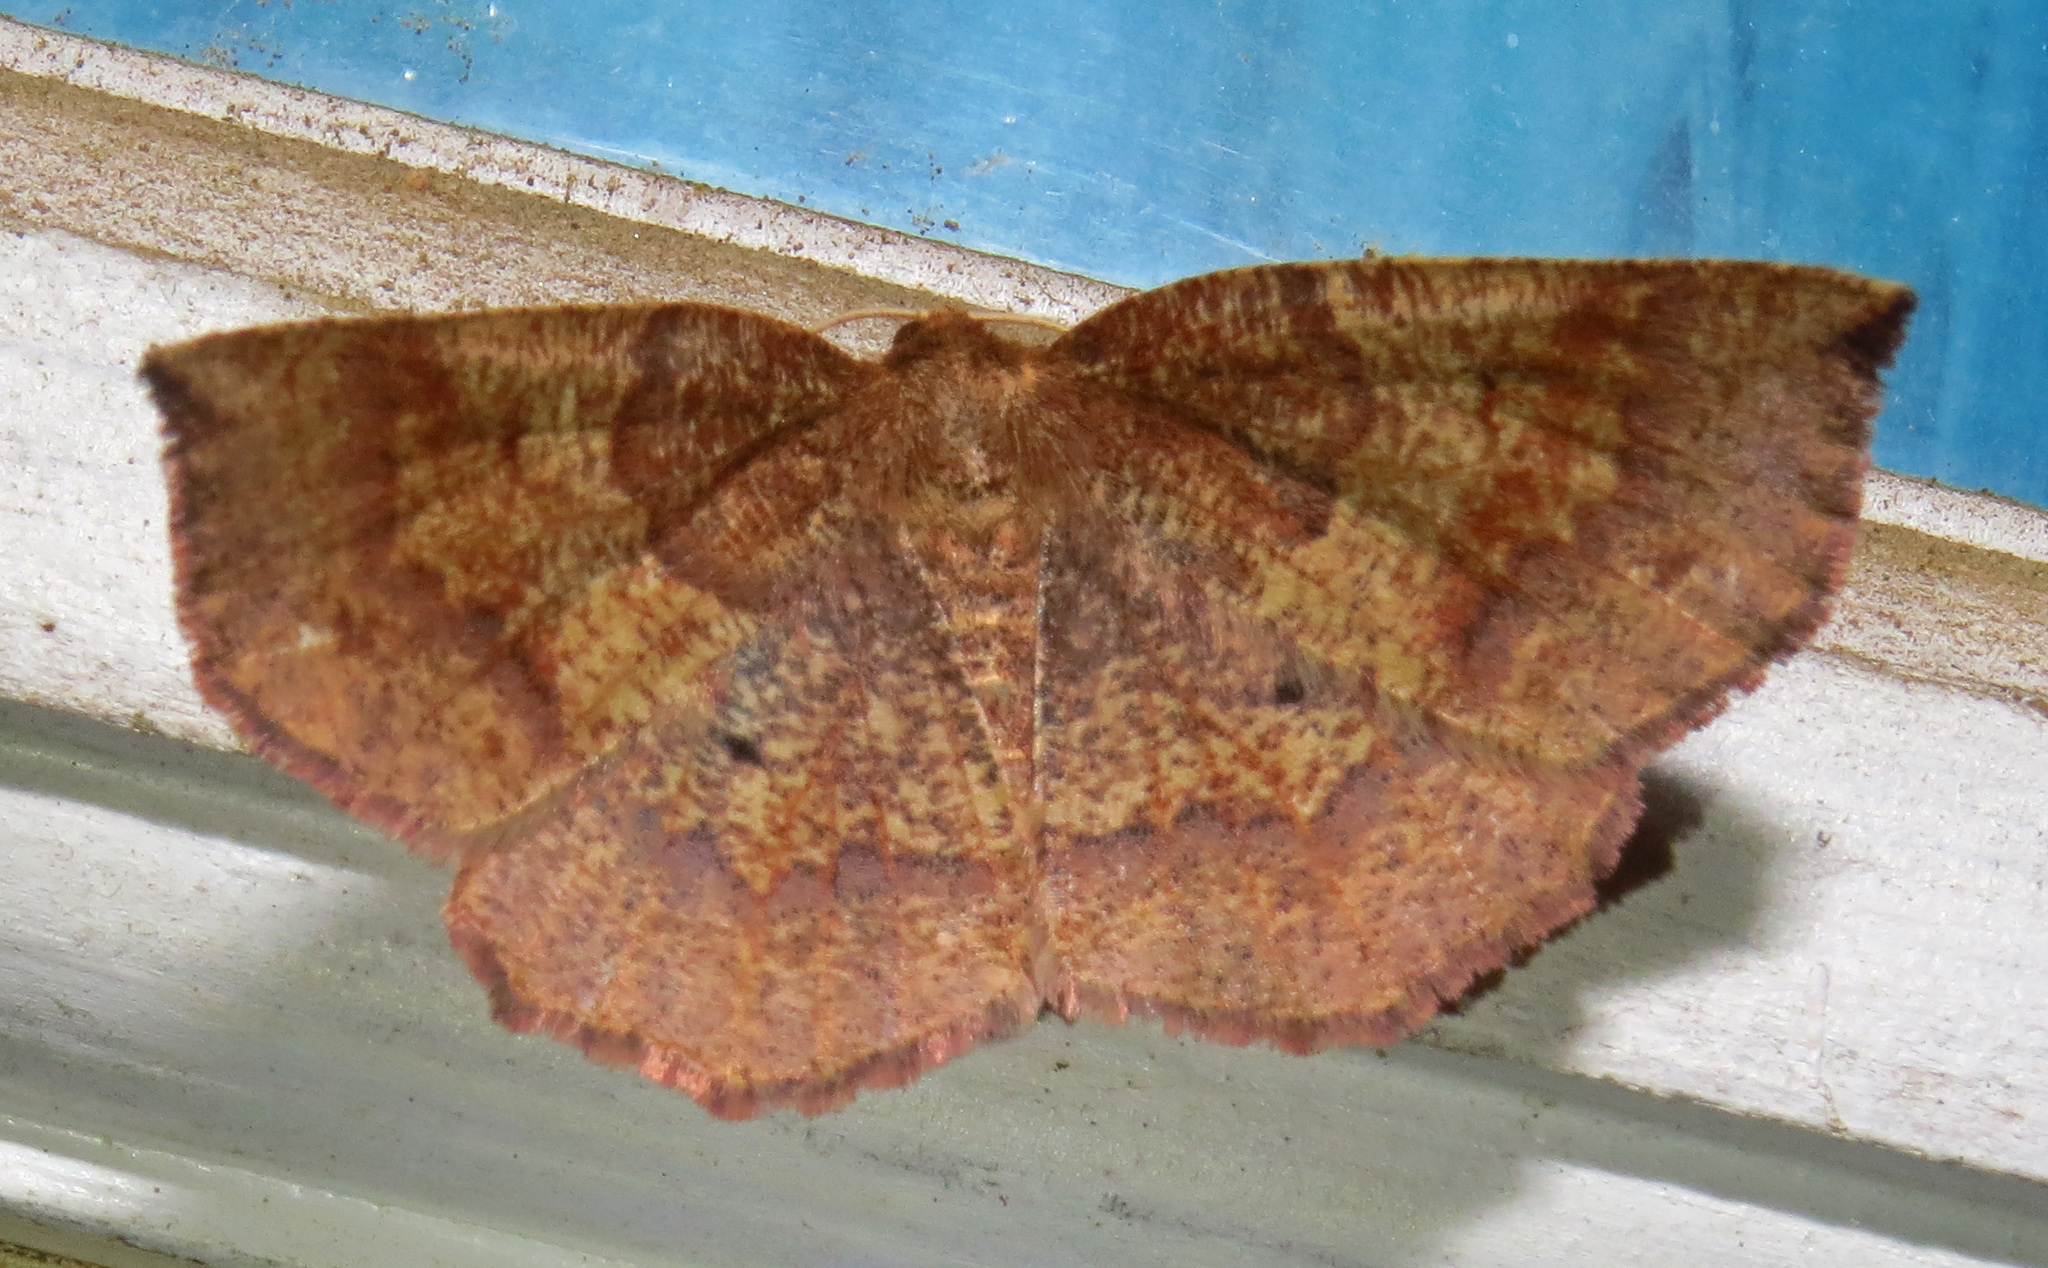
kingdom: Animalia
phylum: Arthropoda
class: Insecta
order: Lepidoptera
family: Geometridae
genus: Metarranthis
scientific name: Metarranthis angularia
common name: Angled metarranthis moth
